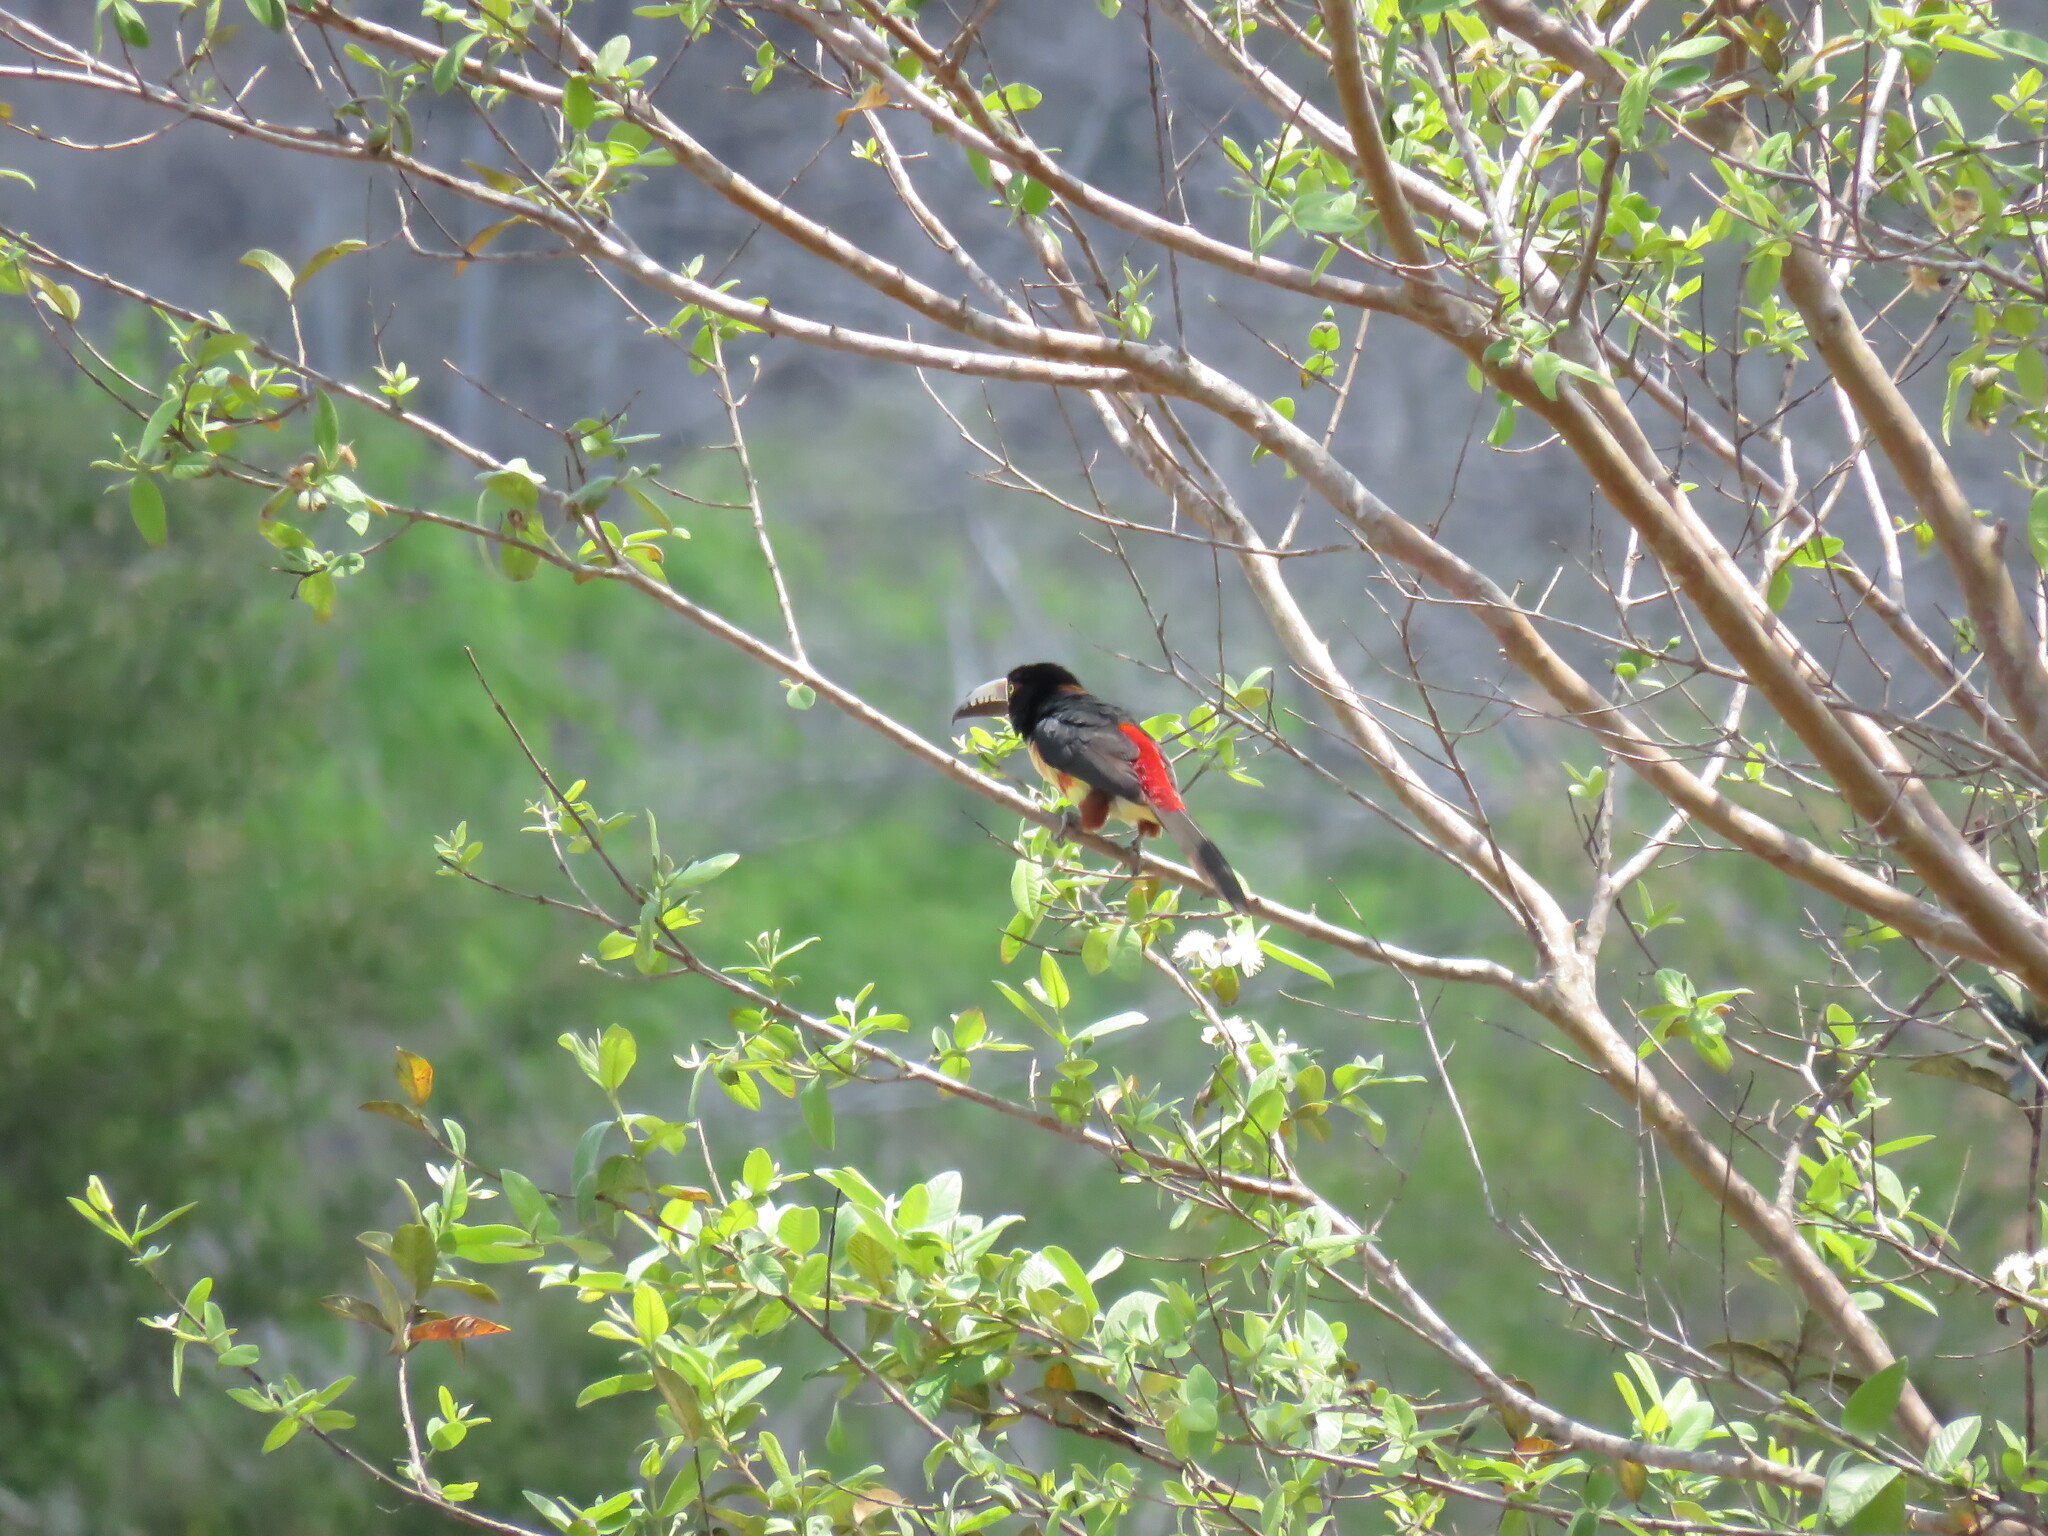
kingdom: Animalia
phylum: Chordata
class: Aves
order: Piciformes
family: Ramphastidae
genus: Pteroglossus
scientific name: Pteroglossus torquatus
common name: Collared aracari
